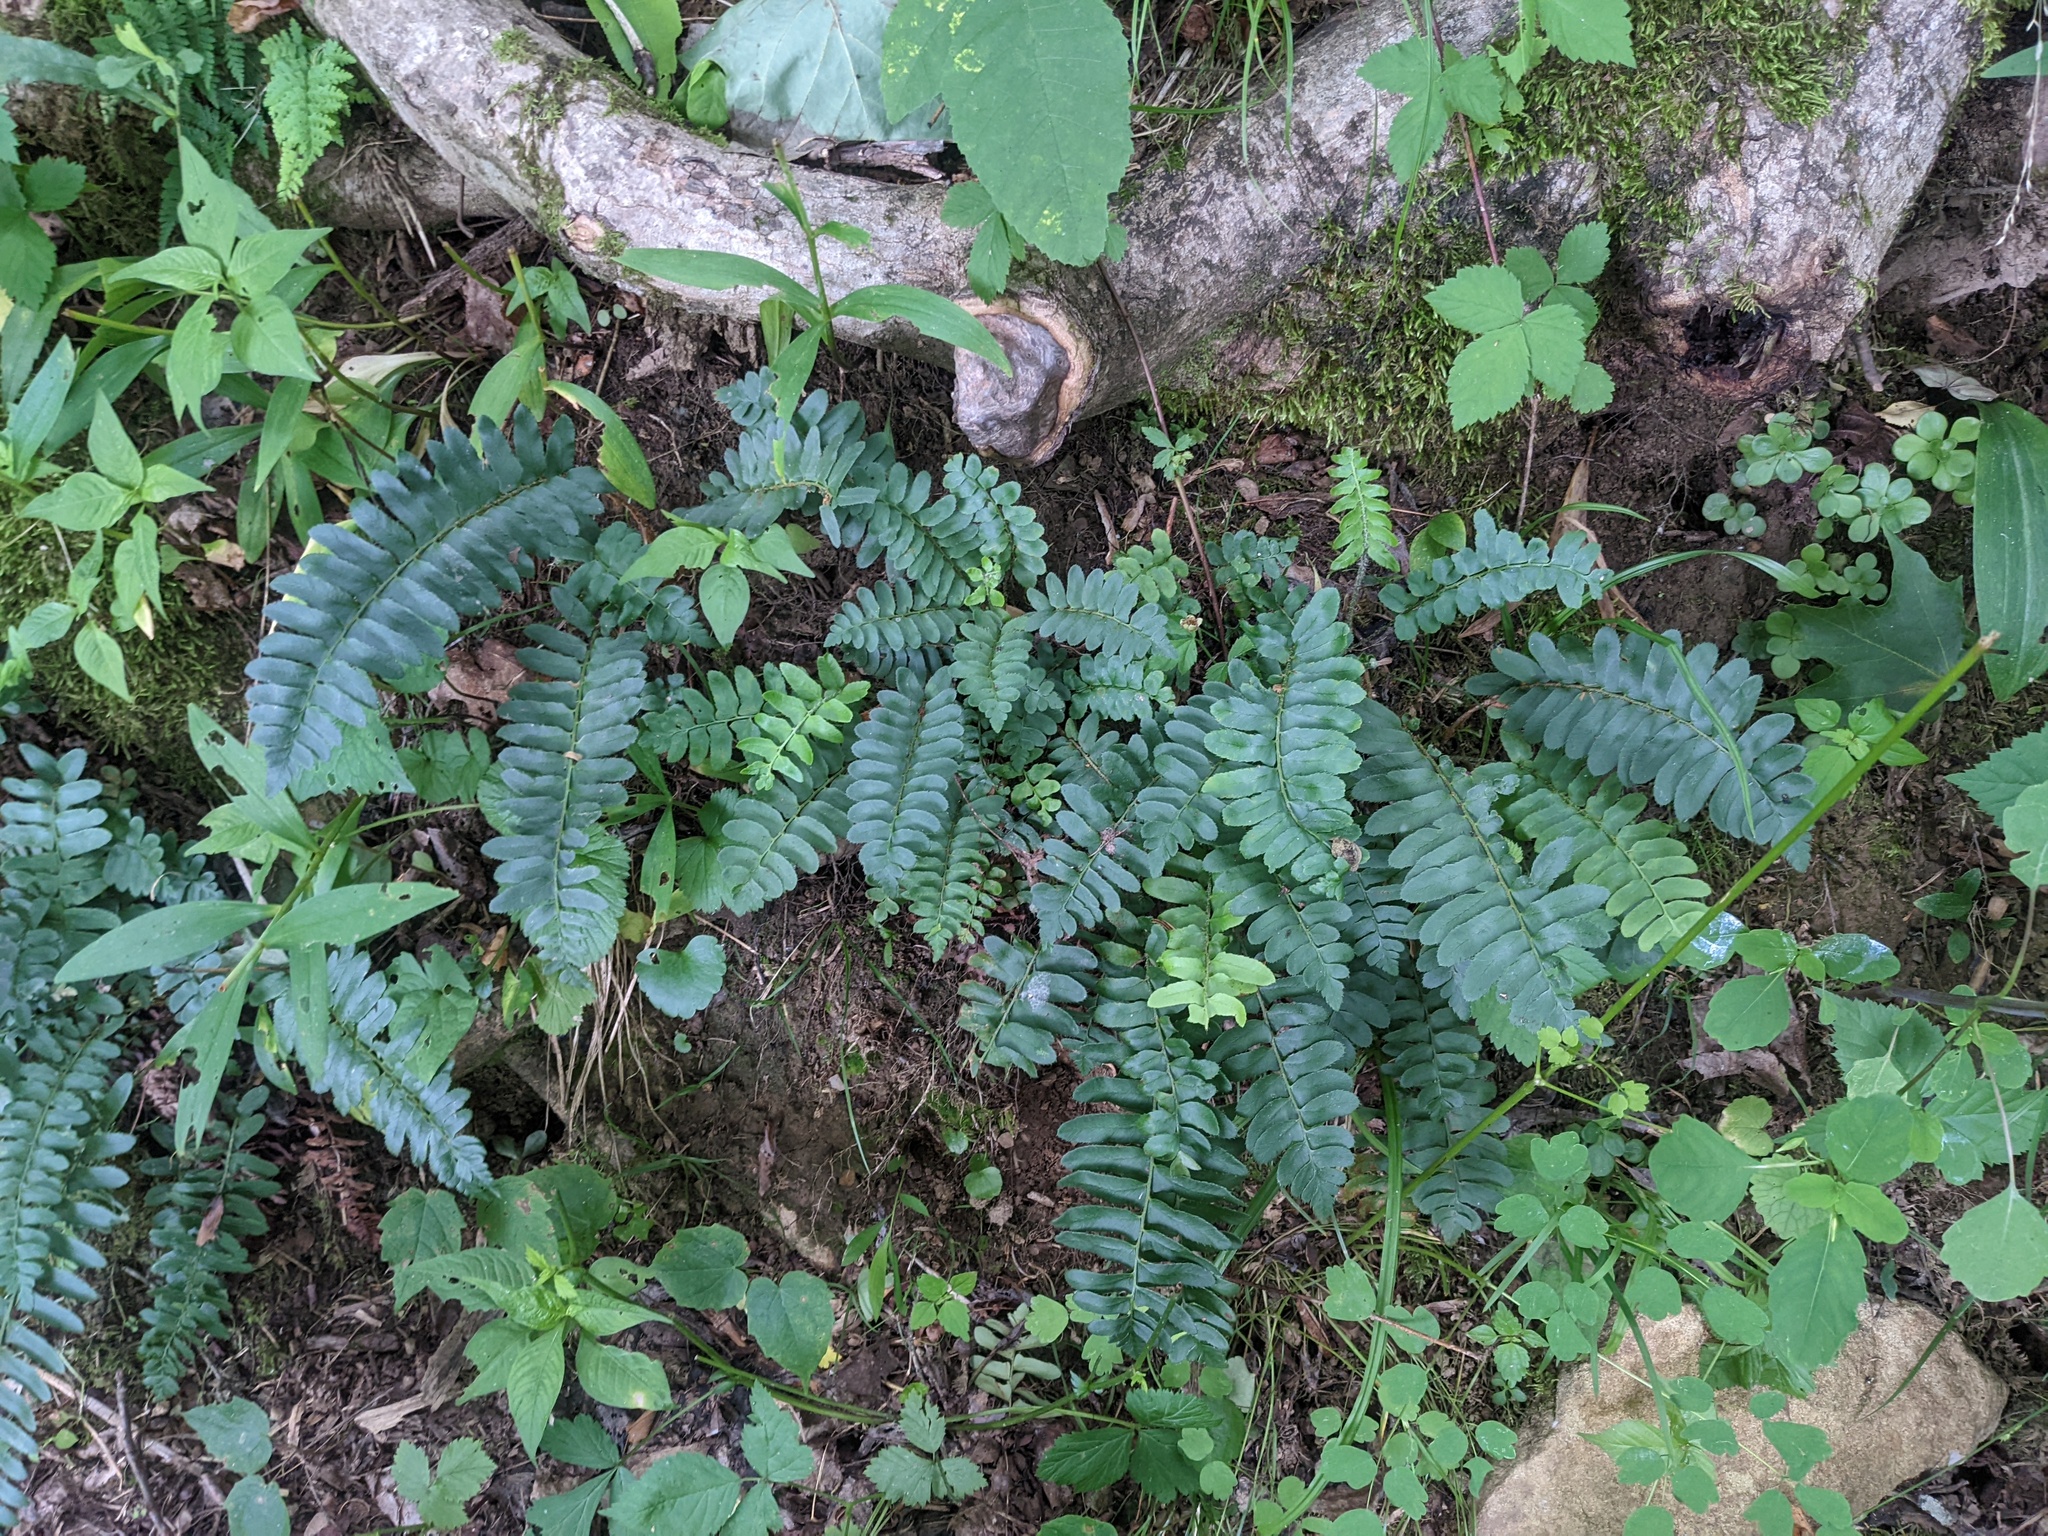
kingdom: Plantae
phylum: Tracheophyta
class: Polypodiopsida
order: Polypodiales
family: Dryopteridaceae
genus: Polystichum
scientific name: Polystichum acrostichoides
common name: Christmas fern
